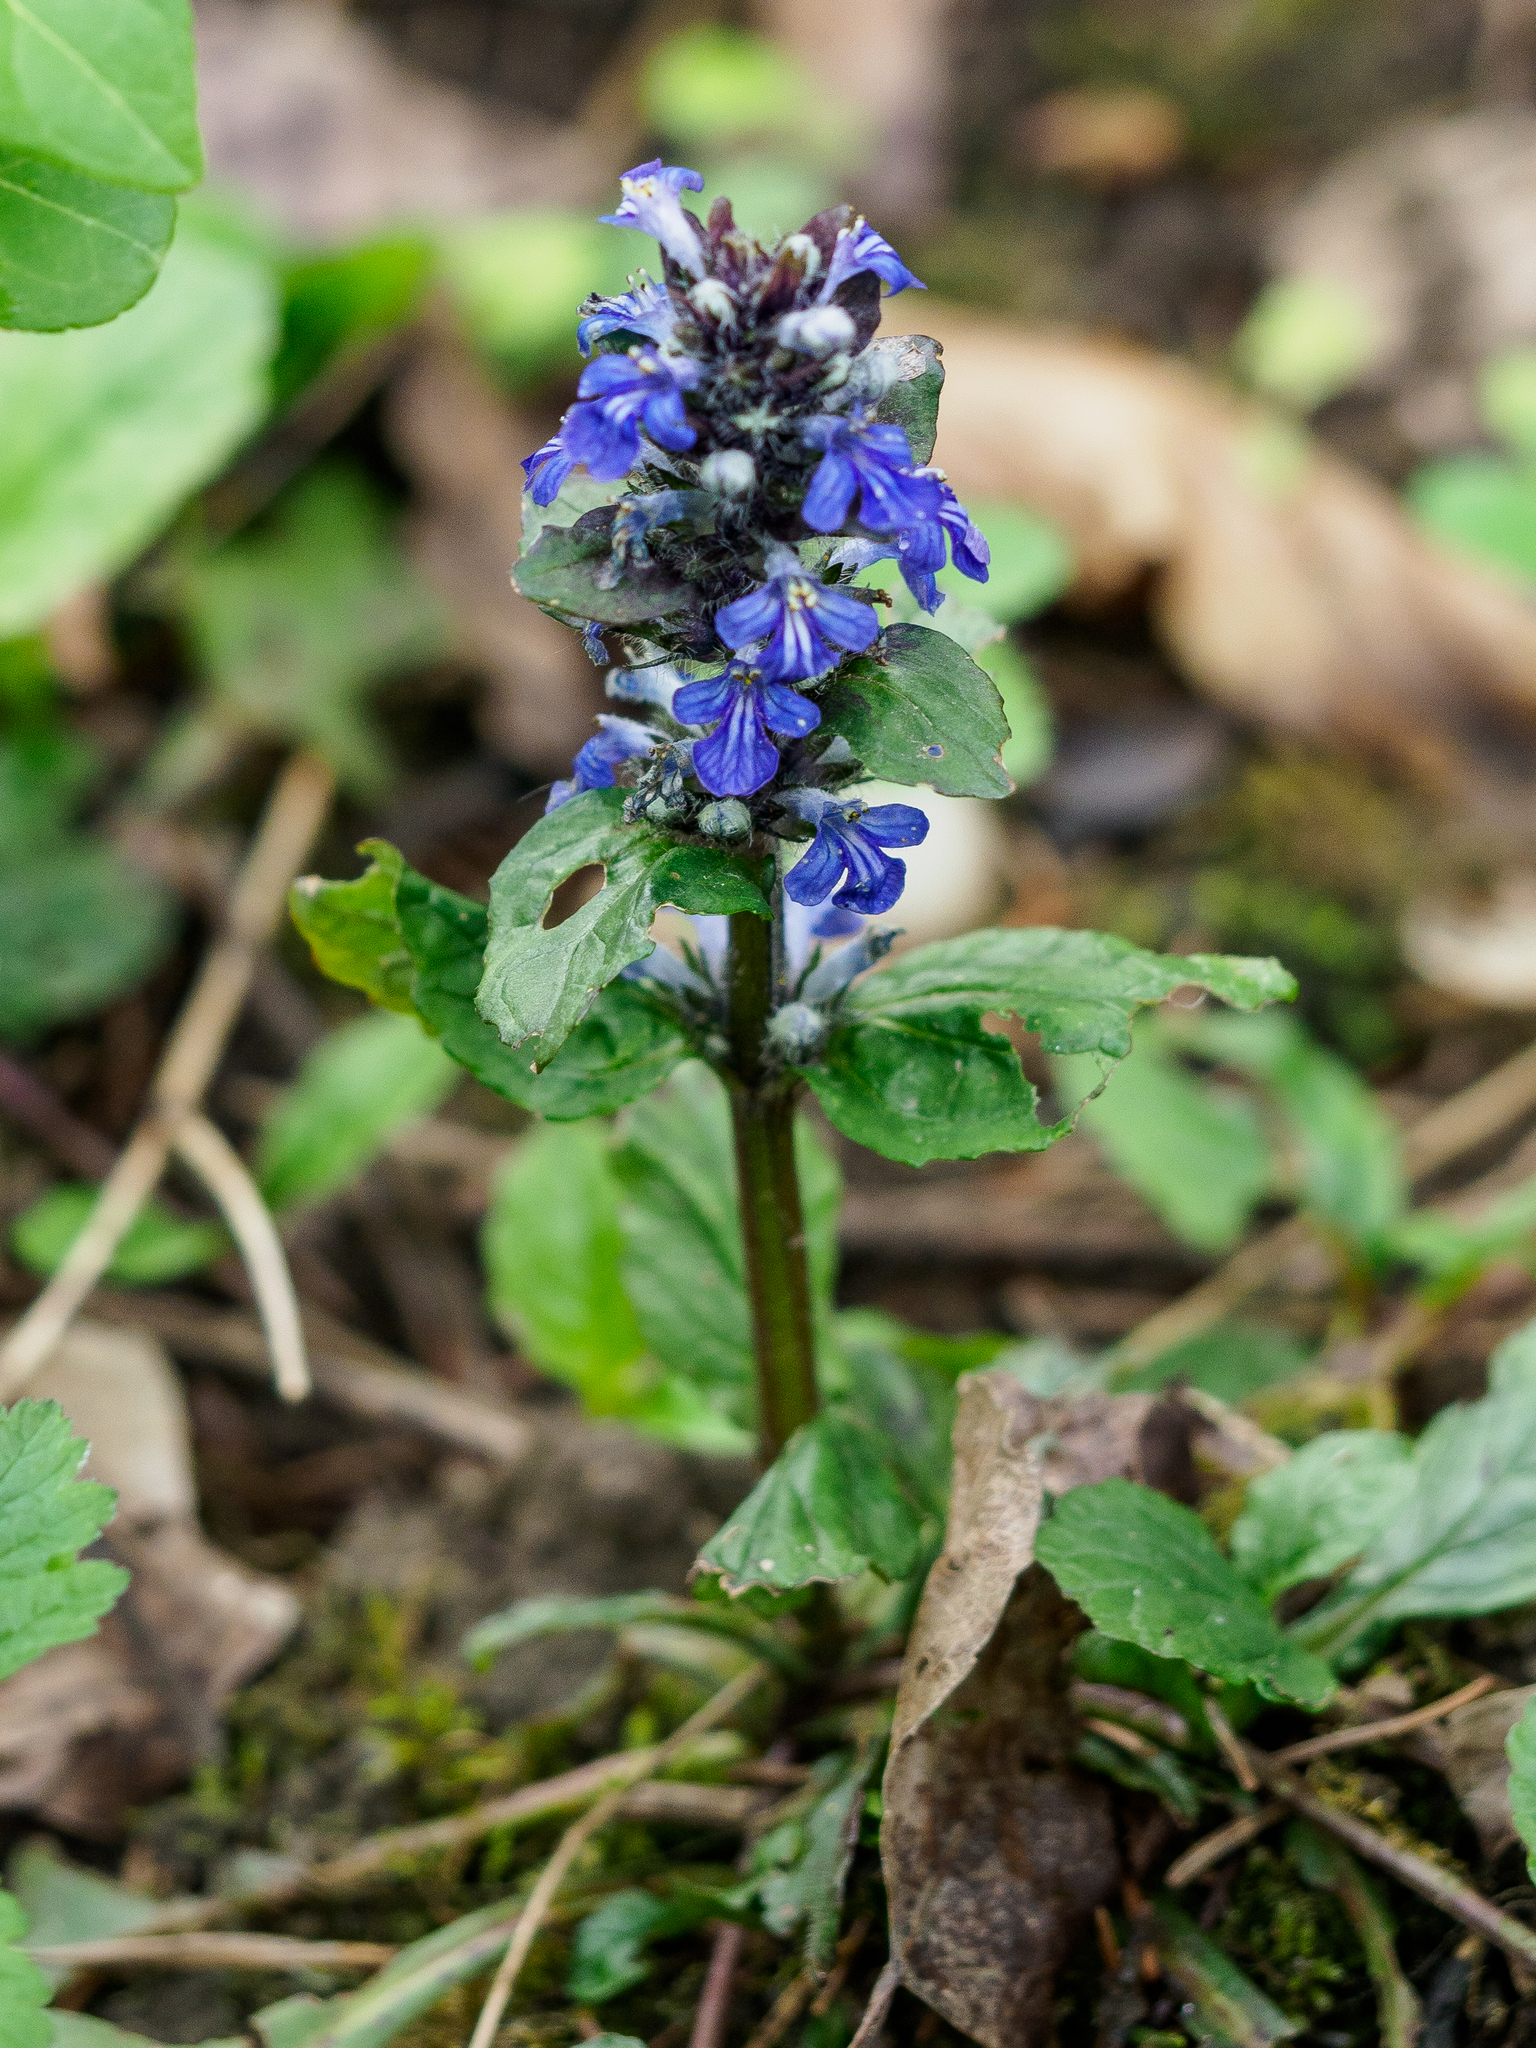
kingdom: Plantae
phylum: Tracheophyta
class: Magnoliopsida
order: Lamiales
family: Lamiaceae
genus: Ajuga
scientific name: Ajuga reptans
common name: Bugle
